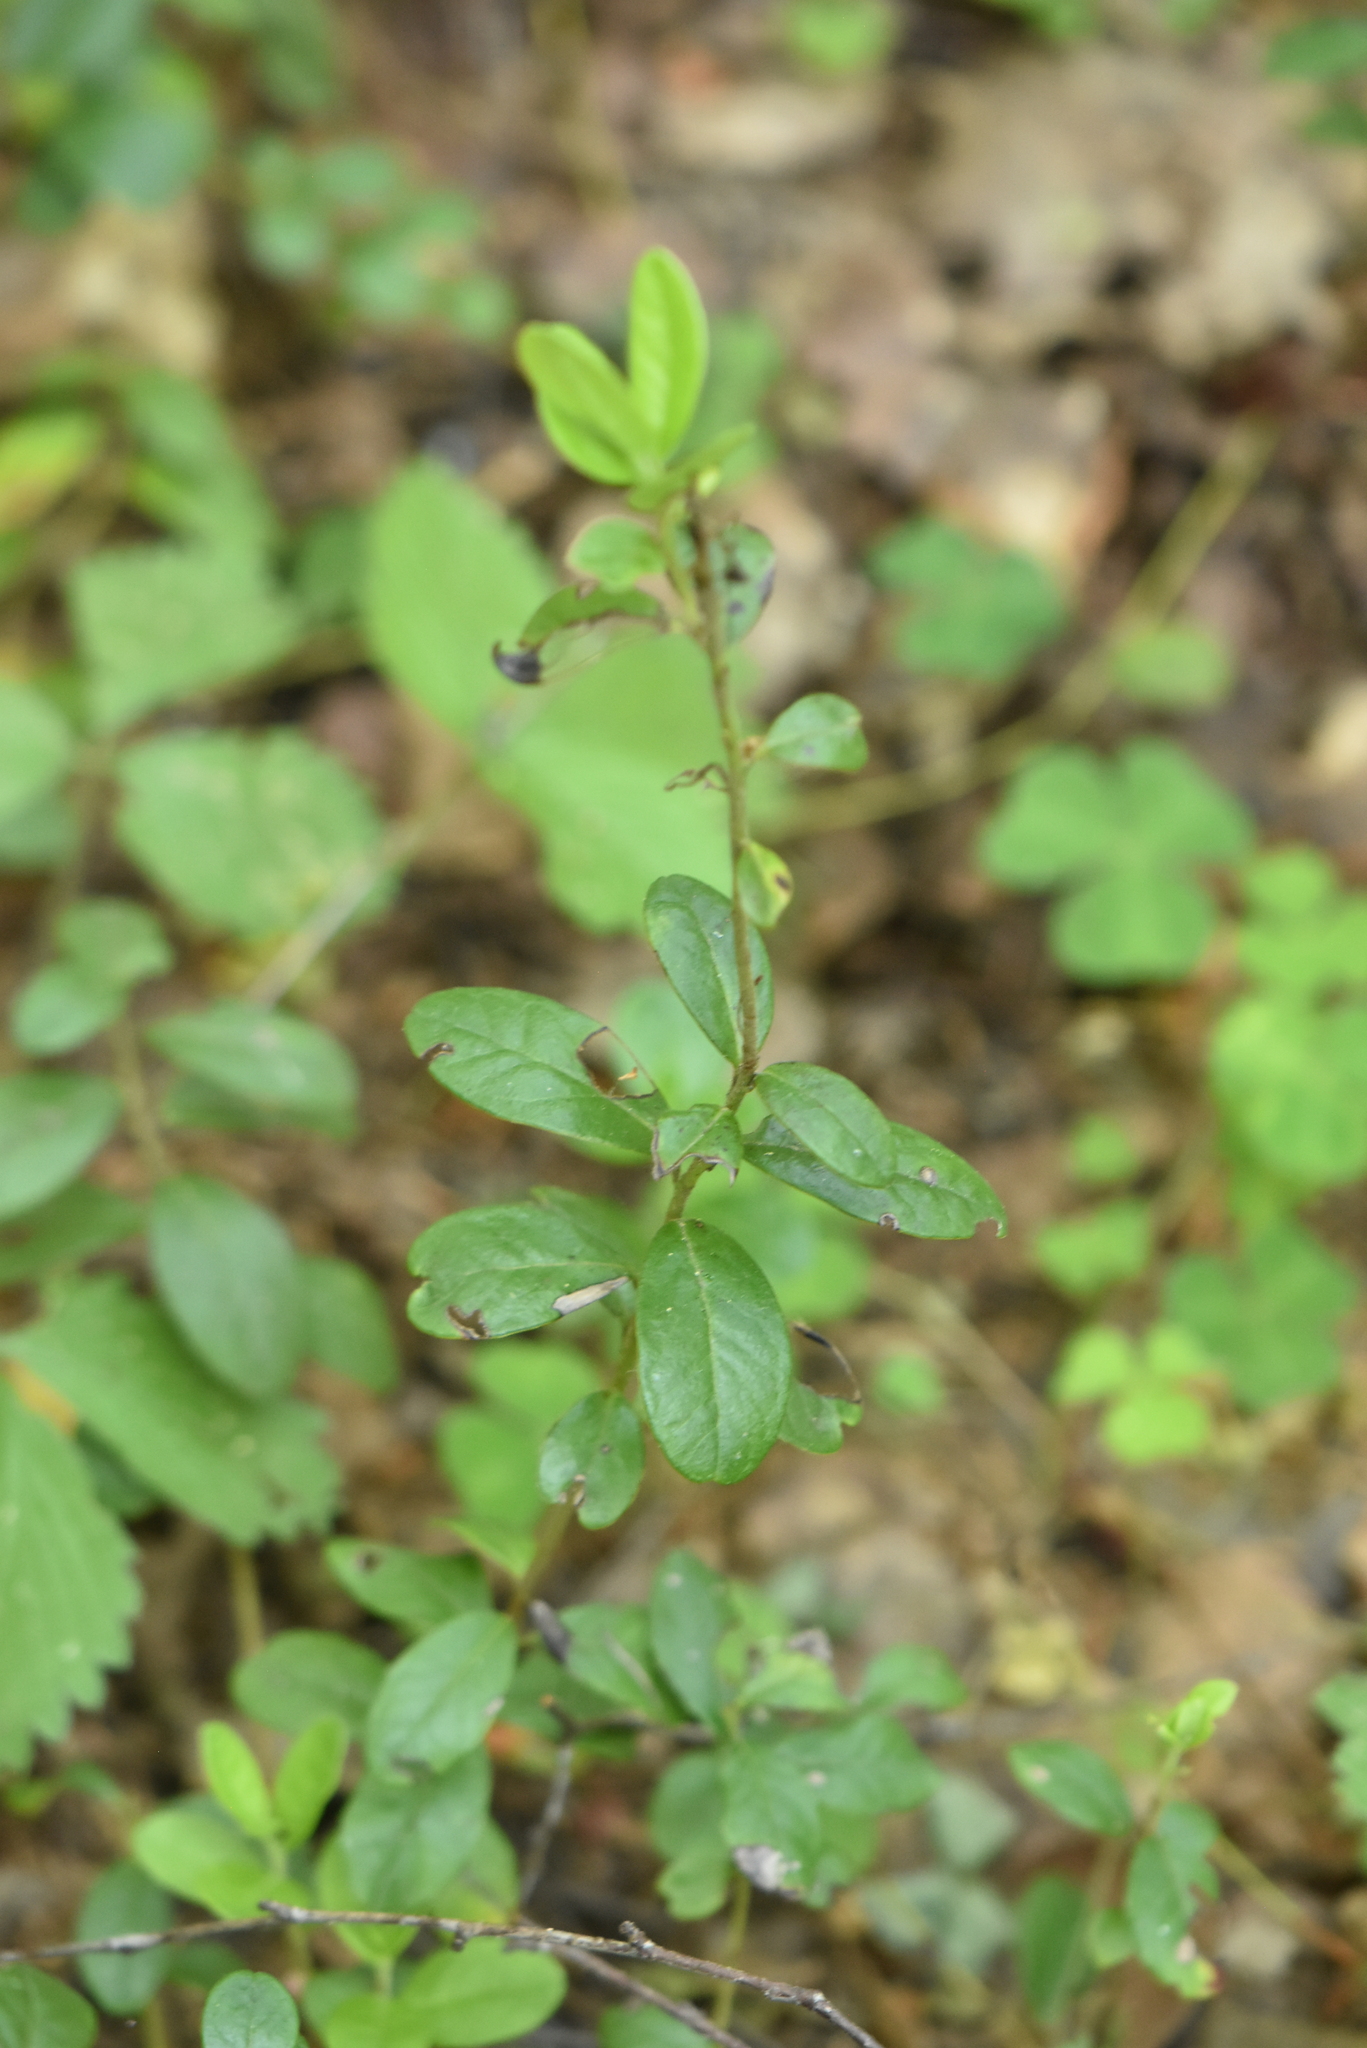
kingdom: Plantae
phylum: Tracheophyta
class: Magnoliopsida
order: Ericales
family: Ericaceae
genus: Vaccinium
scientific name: Vaccinium vitis-idaea
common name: Cowberry
